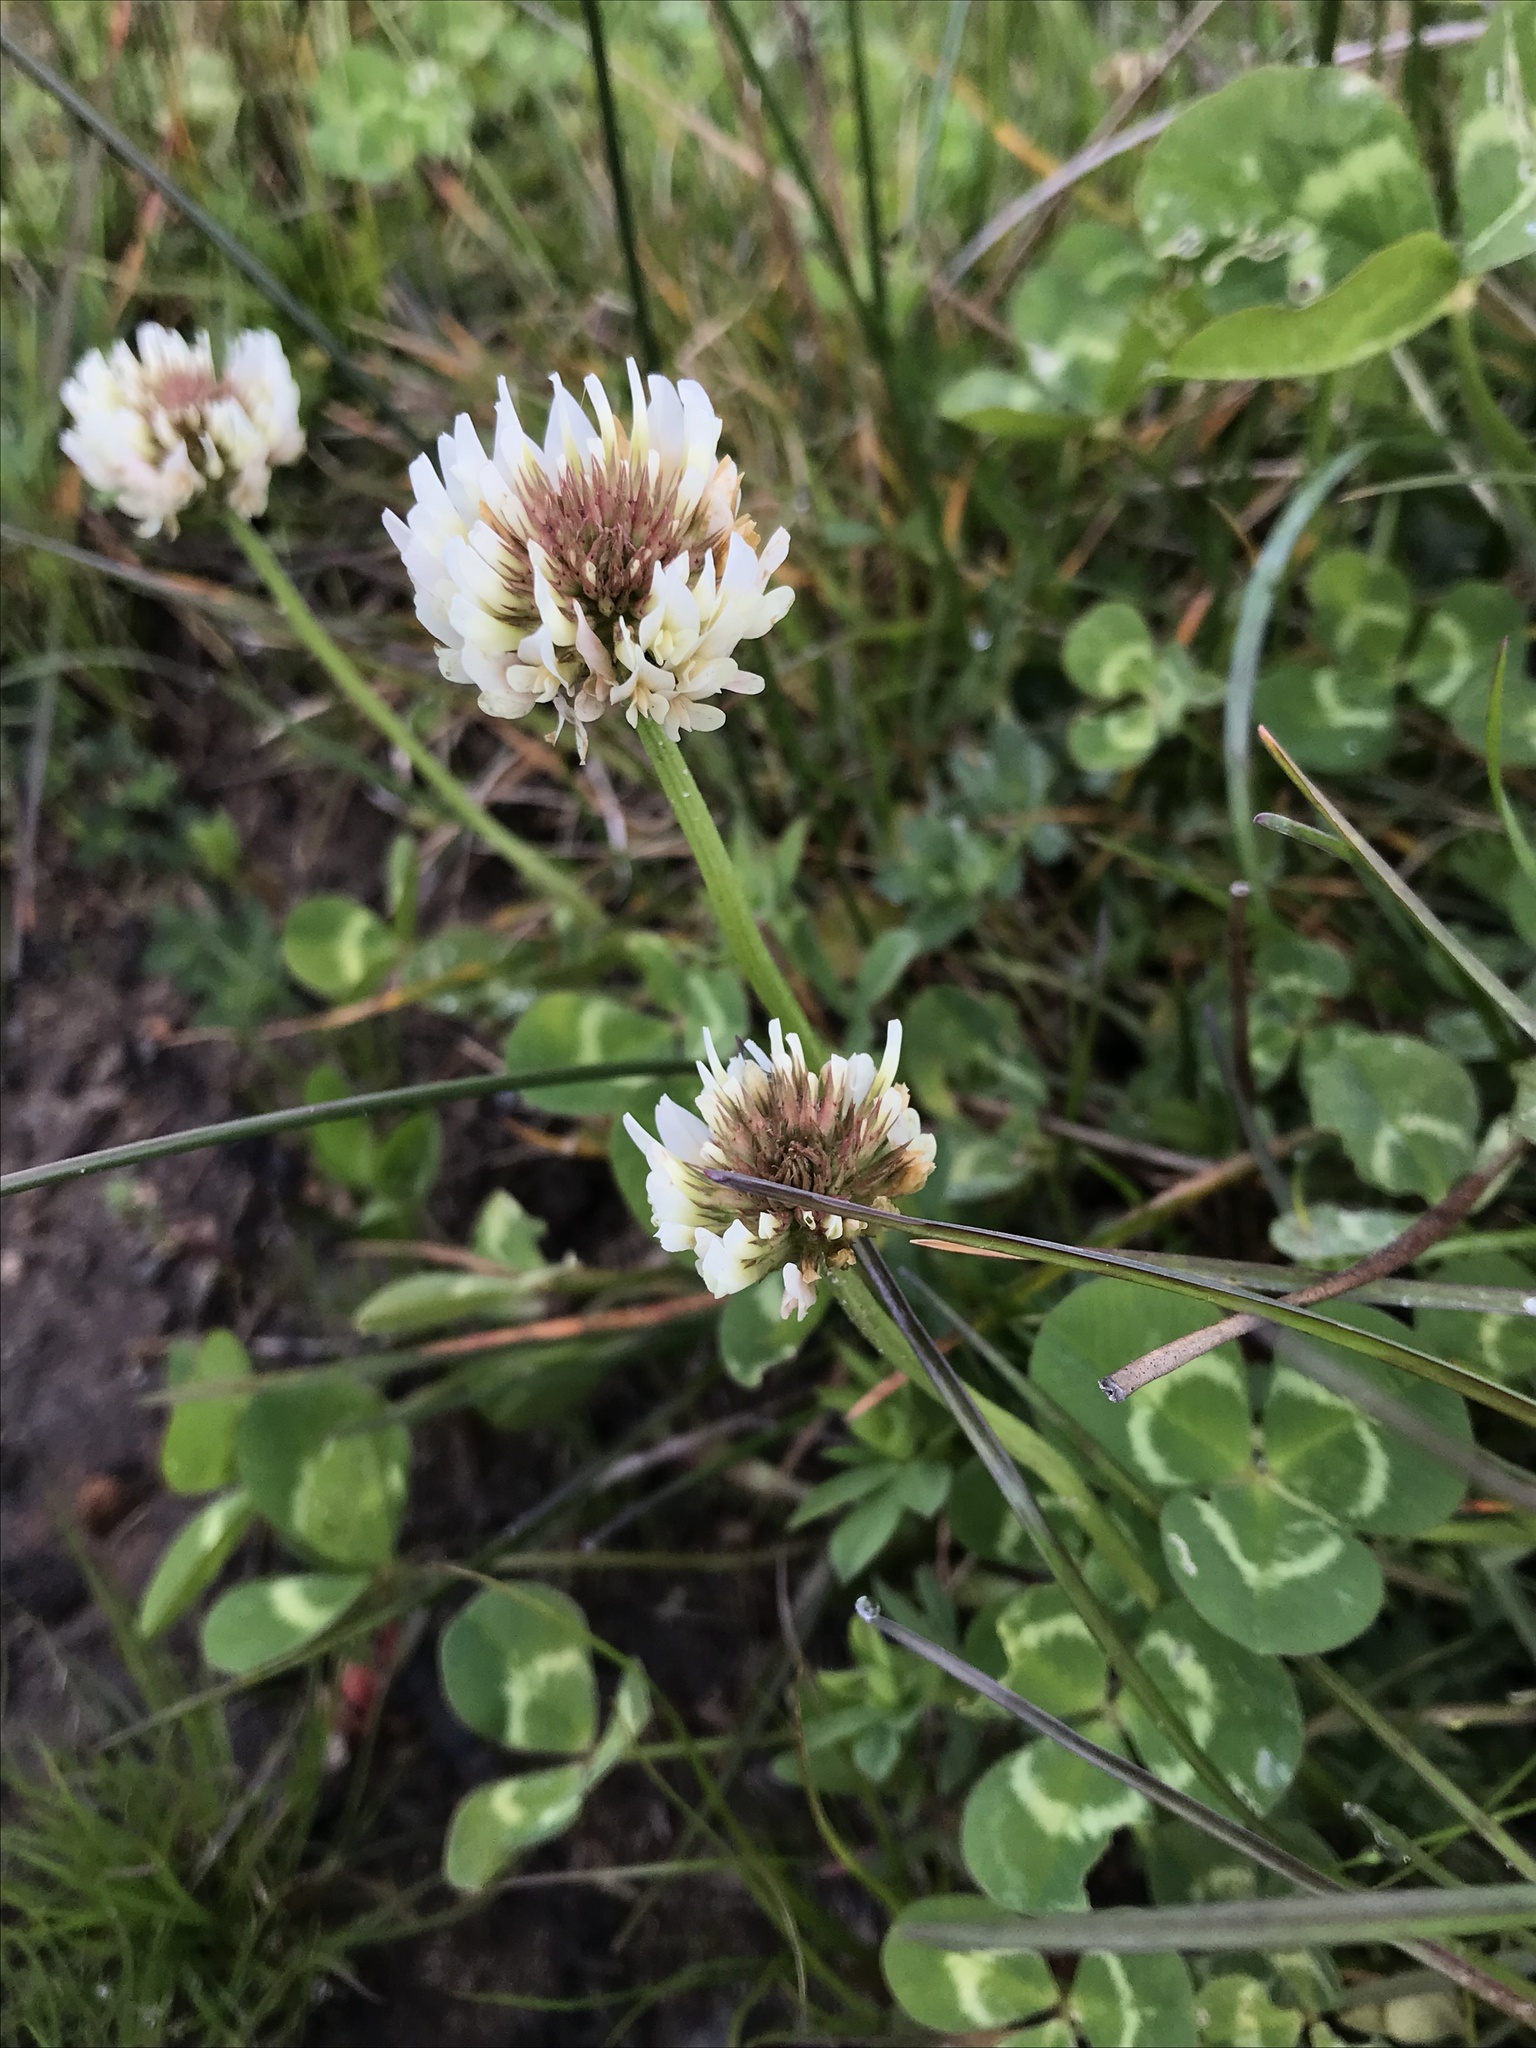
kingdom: Plantae
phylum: Tracheophyta
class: Magnoliopsida
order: Fabales
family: Fabaceae
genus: Trifolium
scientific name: Trifolium repens
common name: White clover
